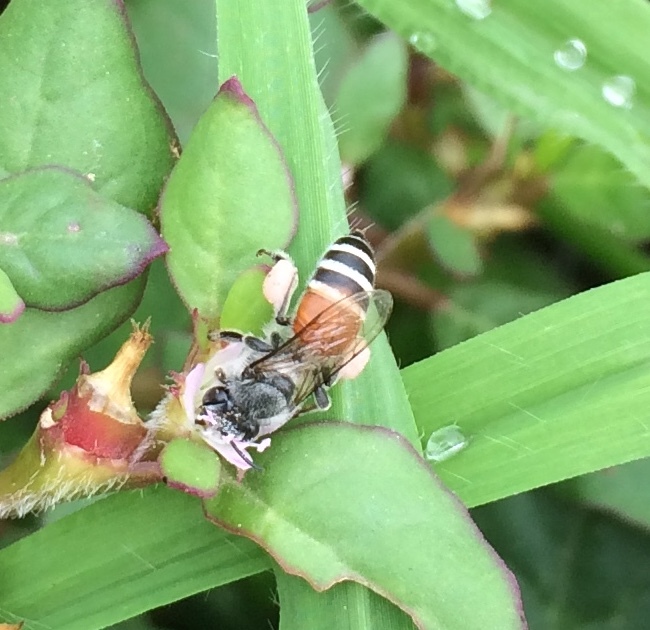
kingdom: Animalia
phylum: Arthropoda
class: Insecta
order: Hymenoptera
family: Apidae
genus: Apis
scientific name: Apis florea
